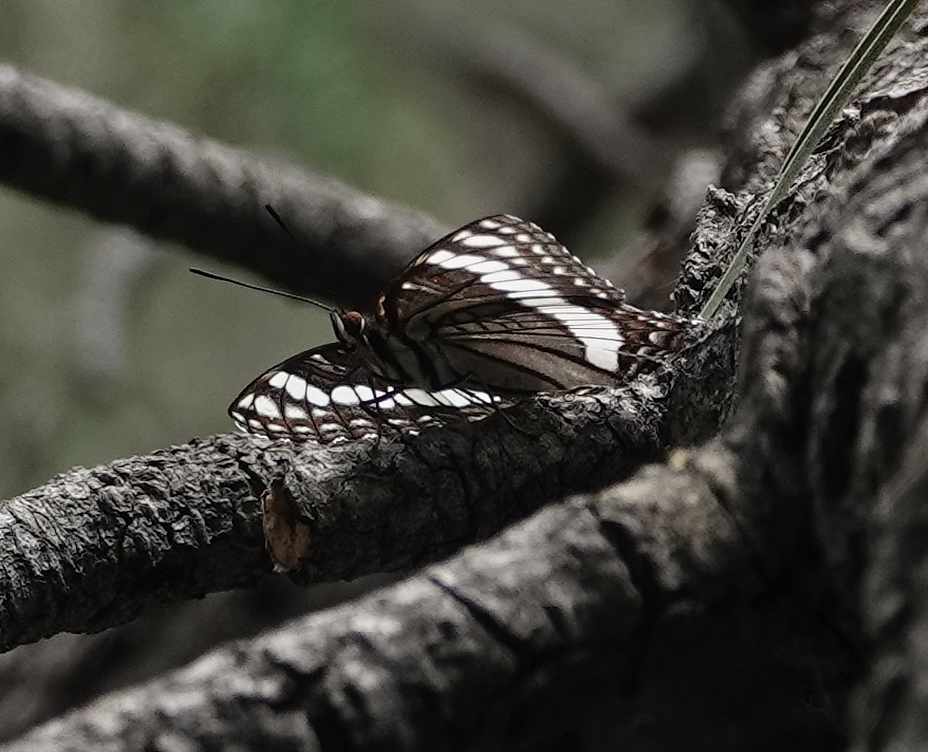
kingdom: Animalia
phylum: Arthropoda
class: Insecta
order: Lepidoptera
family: Nymphalidae
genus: Limenitis
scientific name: Limenitis weidemeyerii
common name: Weidemeyer's admiral
